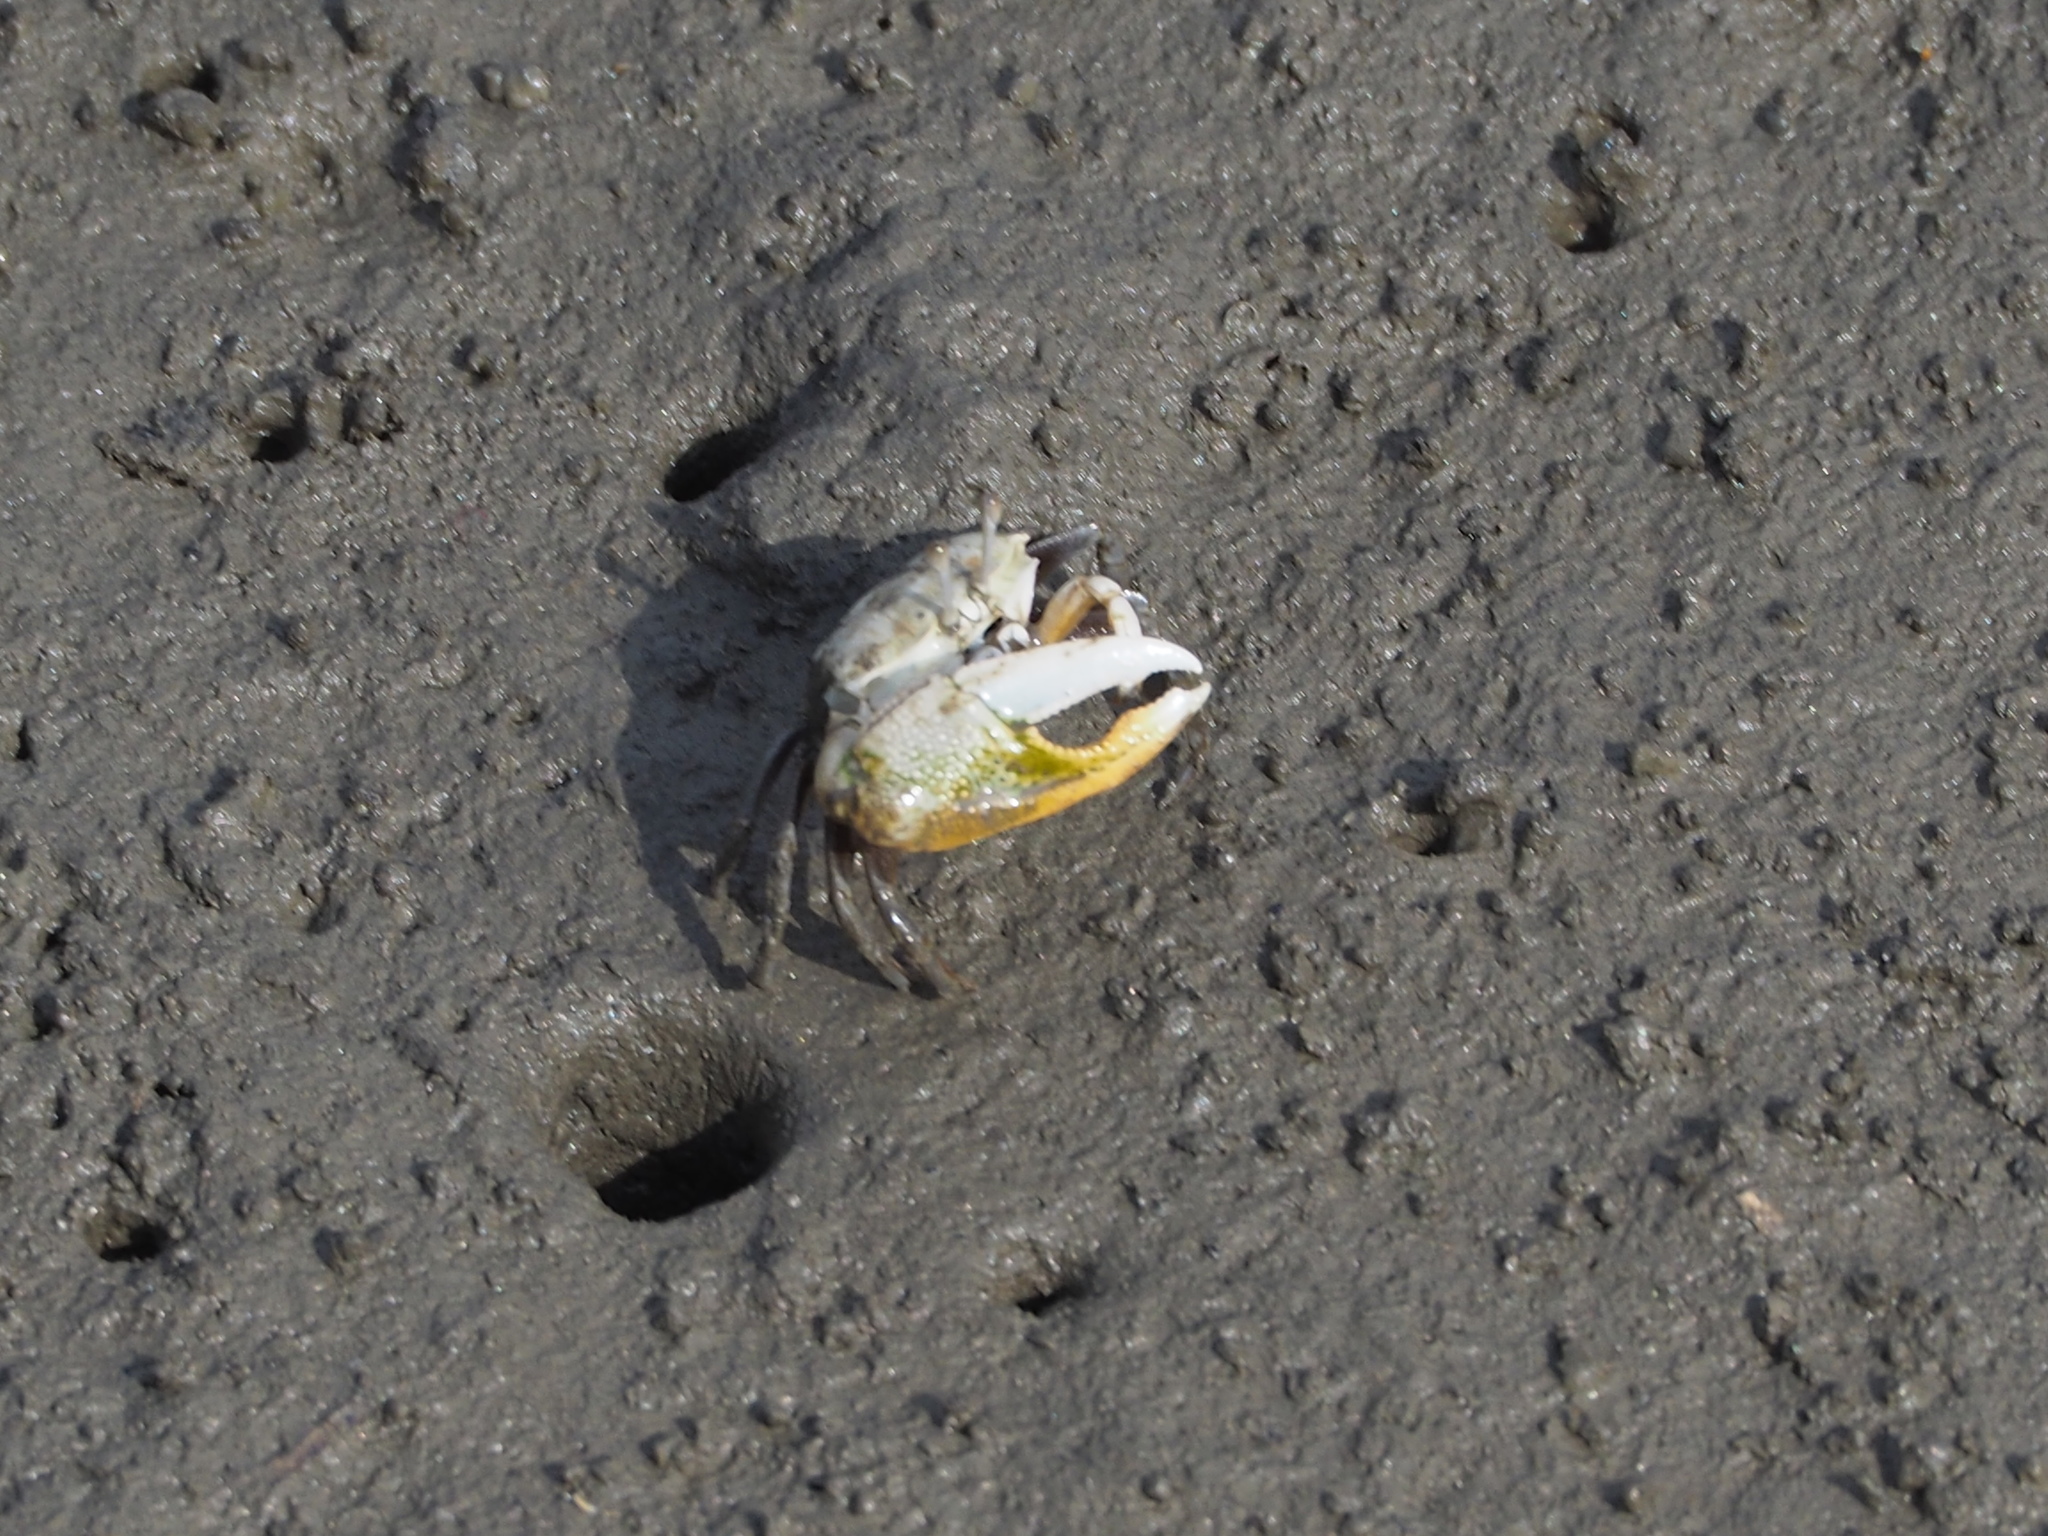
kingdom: Animalia
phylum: Arthropoda
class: Malacostraca
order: Decapoda
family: Ocypodidae
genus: Gelasimus
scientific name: Gelasimus borealis
